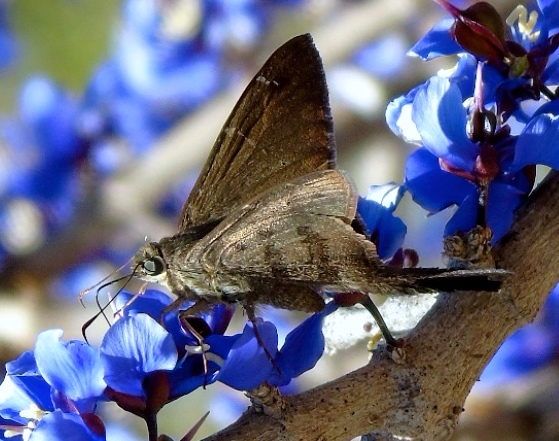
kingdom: Animalia
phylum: Arthropoda
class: Insecta
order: Lepidoptera
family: Hesperiidae
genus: Urbanus
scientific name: Urbanus procne
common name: Brown longtail
